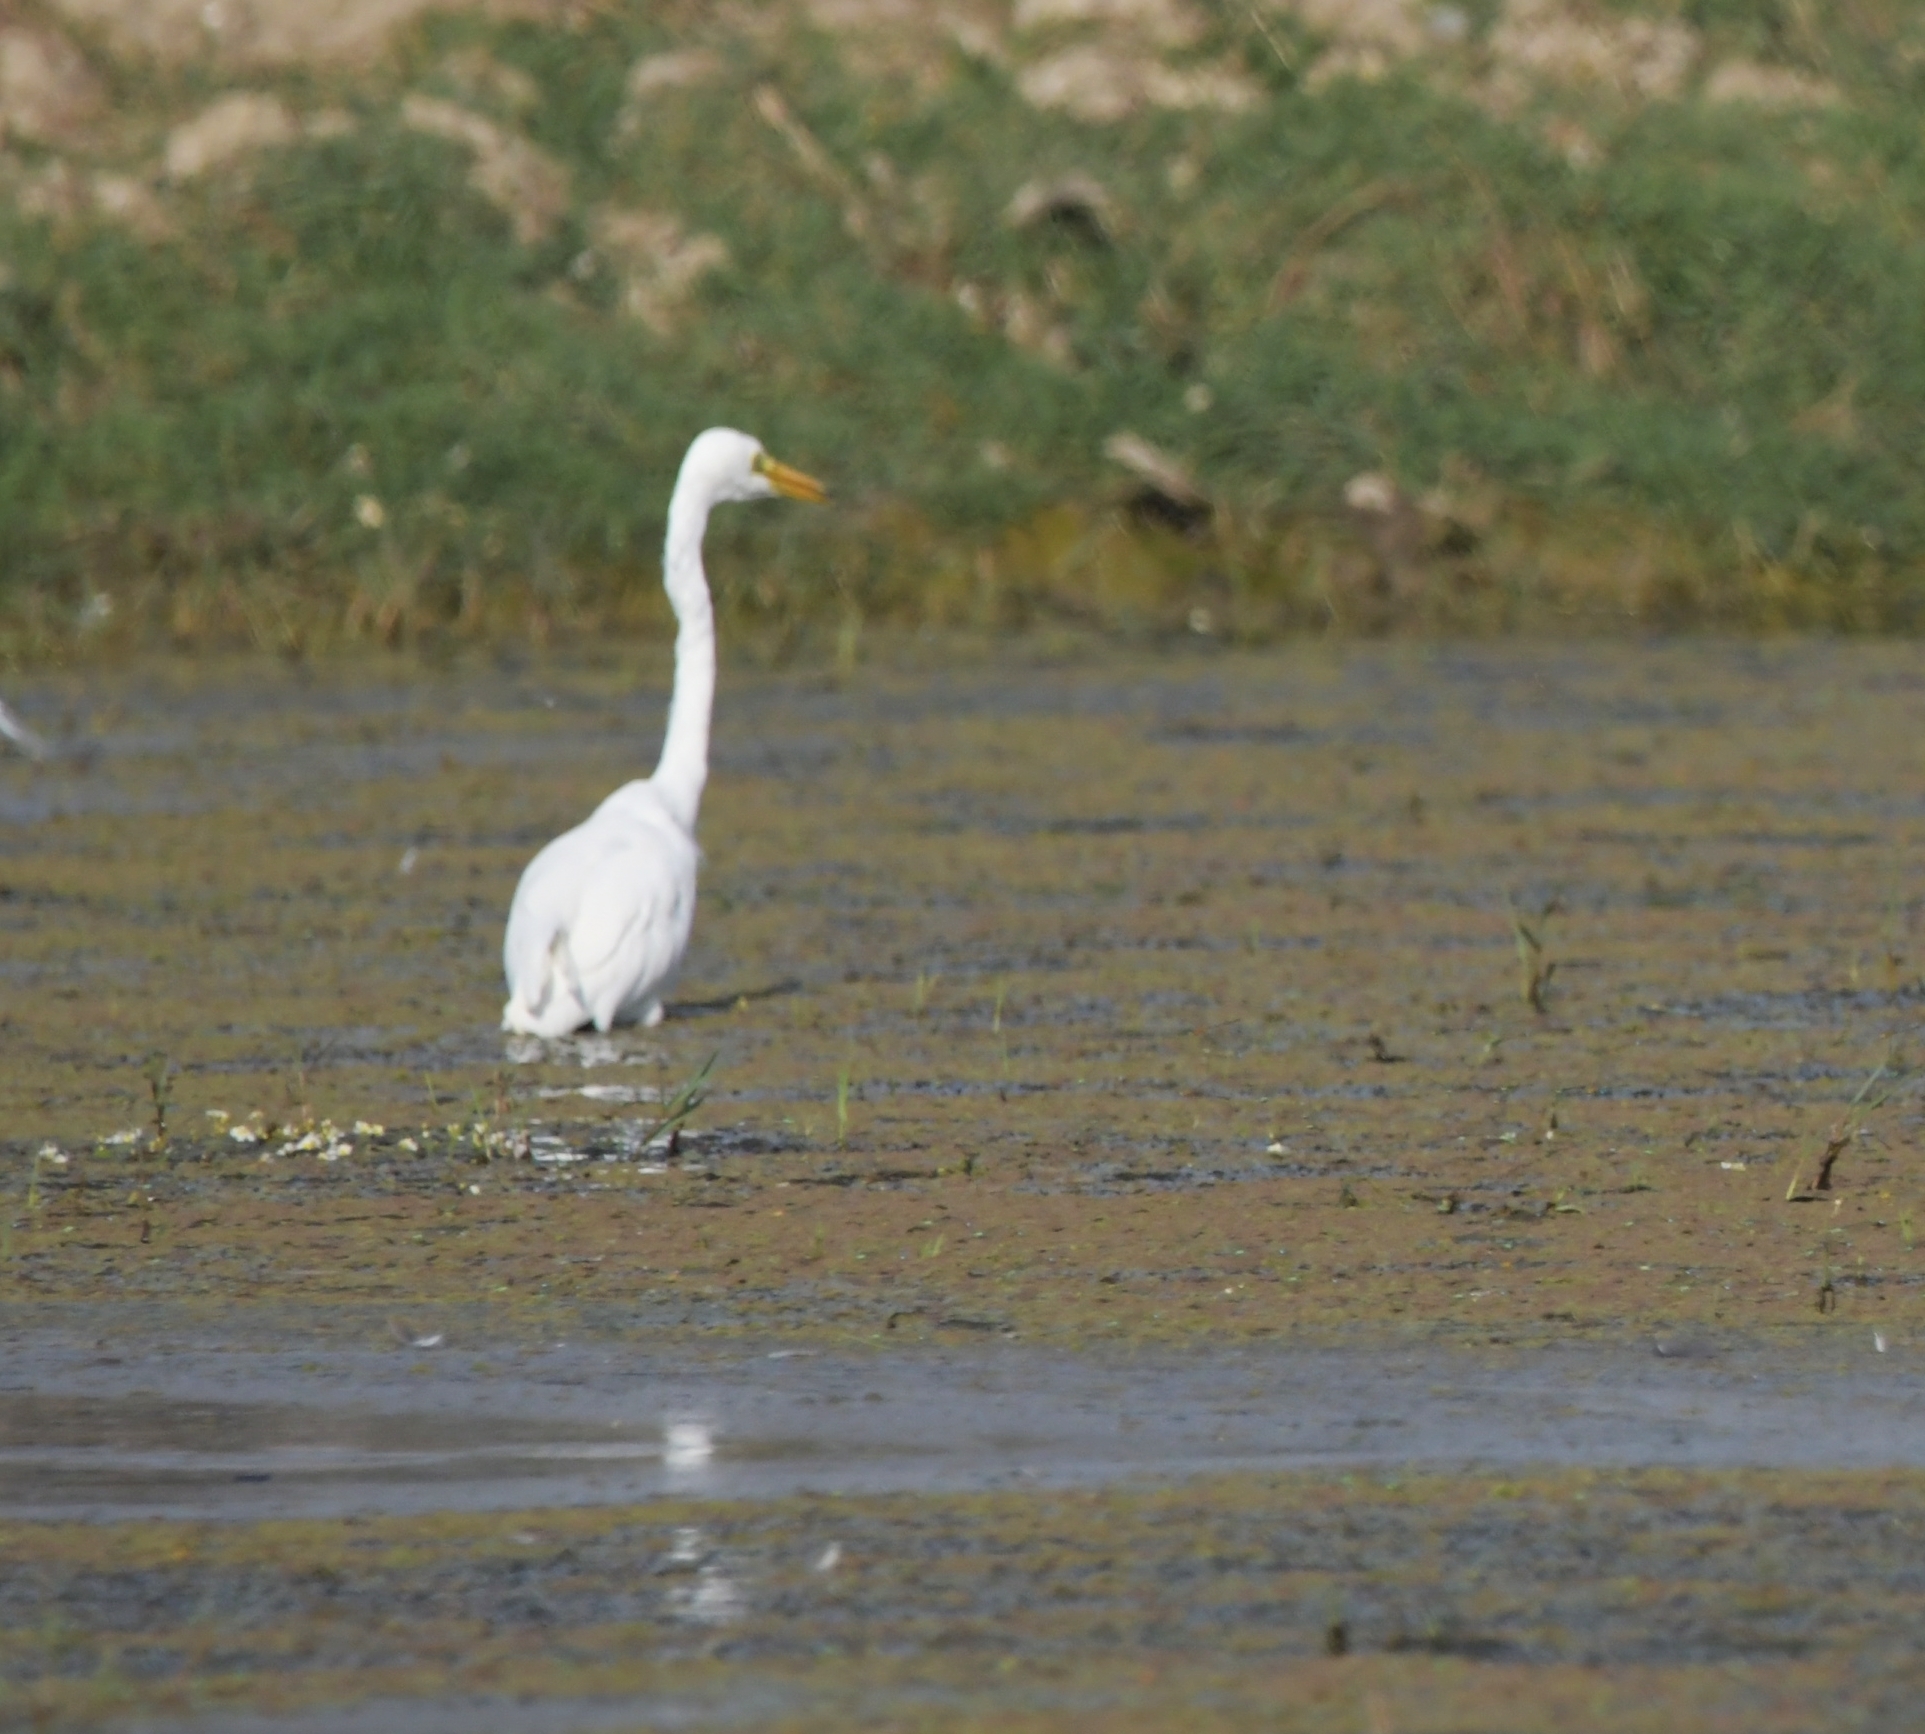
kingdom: Animalia
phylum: Chordata
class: Aves
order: Pelecaniformes
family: Ardeidae
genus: Ardea
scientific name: Ardea alba
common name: Great egret
